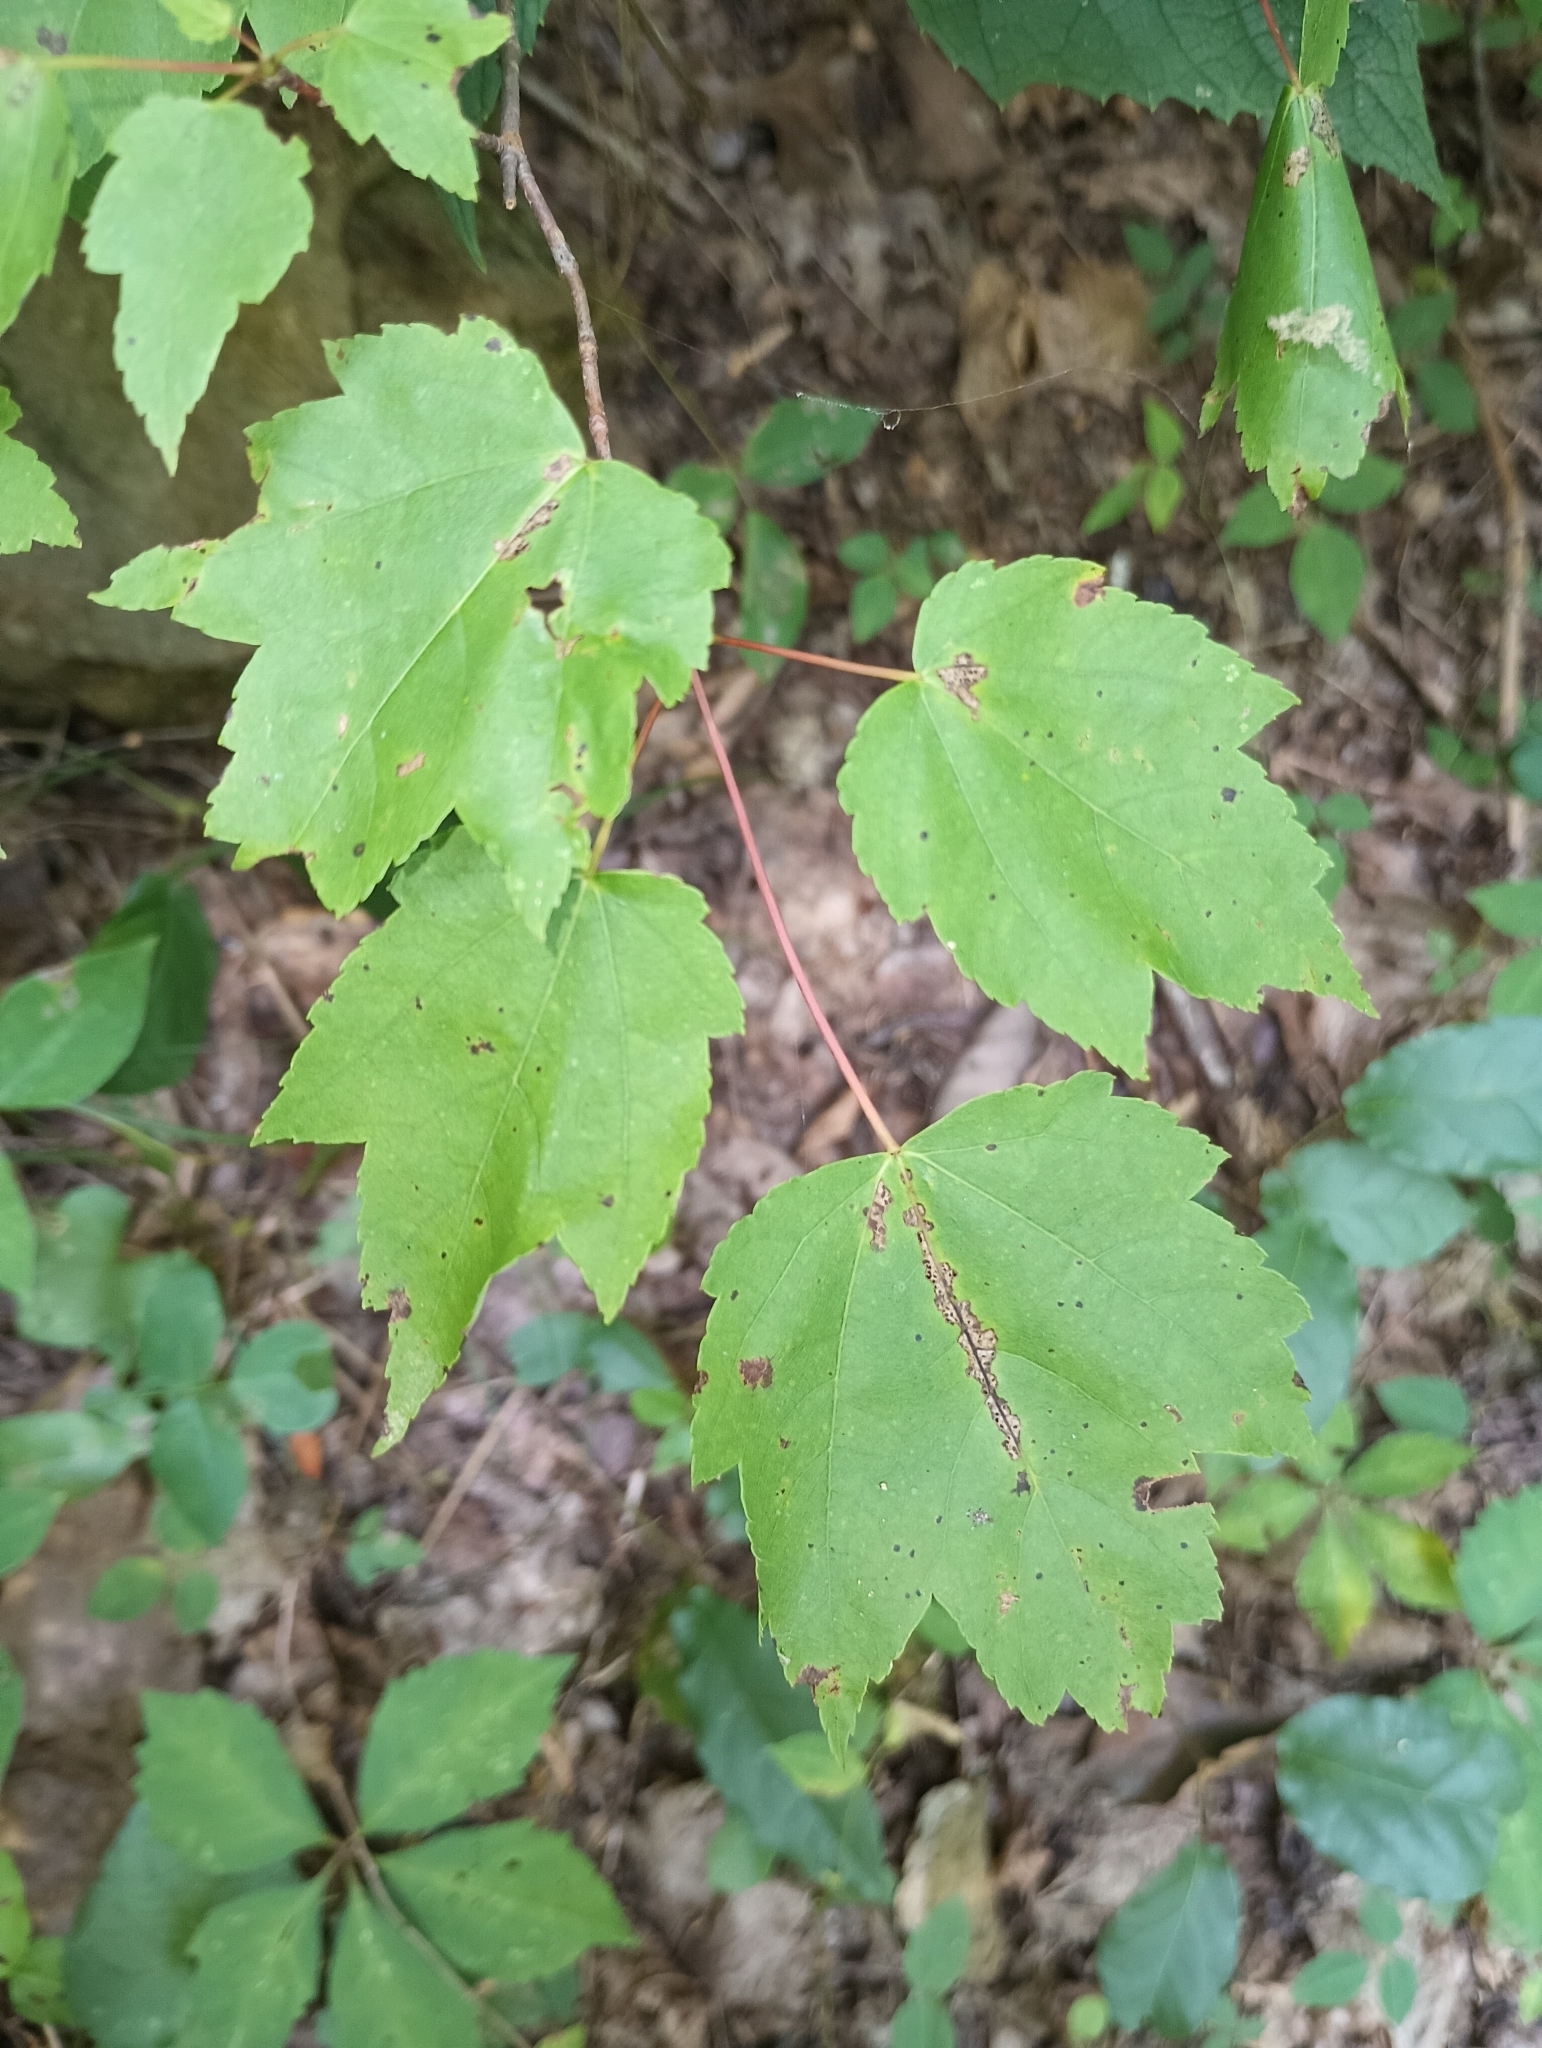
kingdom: Plantae
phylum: Tracheophyta
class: Magnoliopsida
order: Sapindales
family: Sapindaceae
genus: Acer
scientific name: Acer rubrum
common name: Red maple
